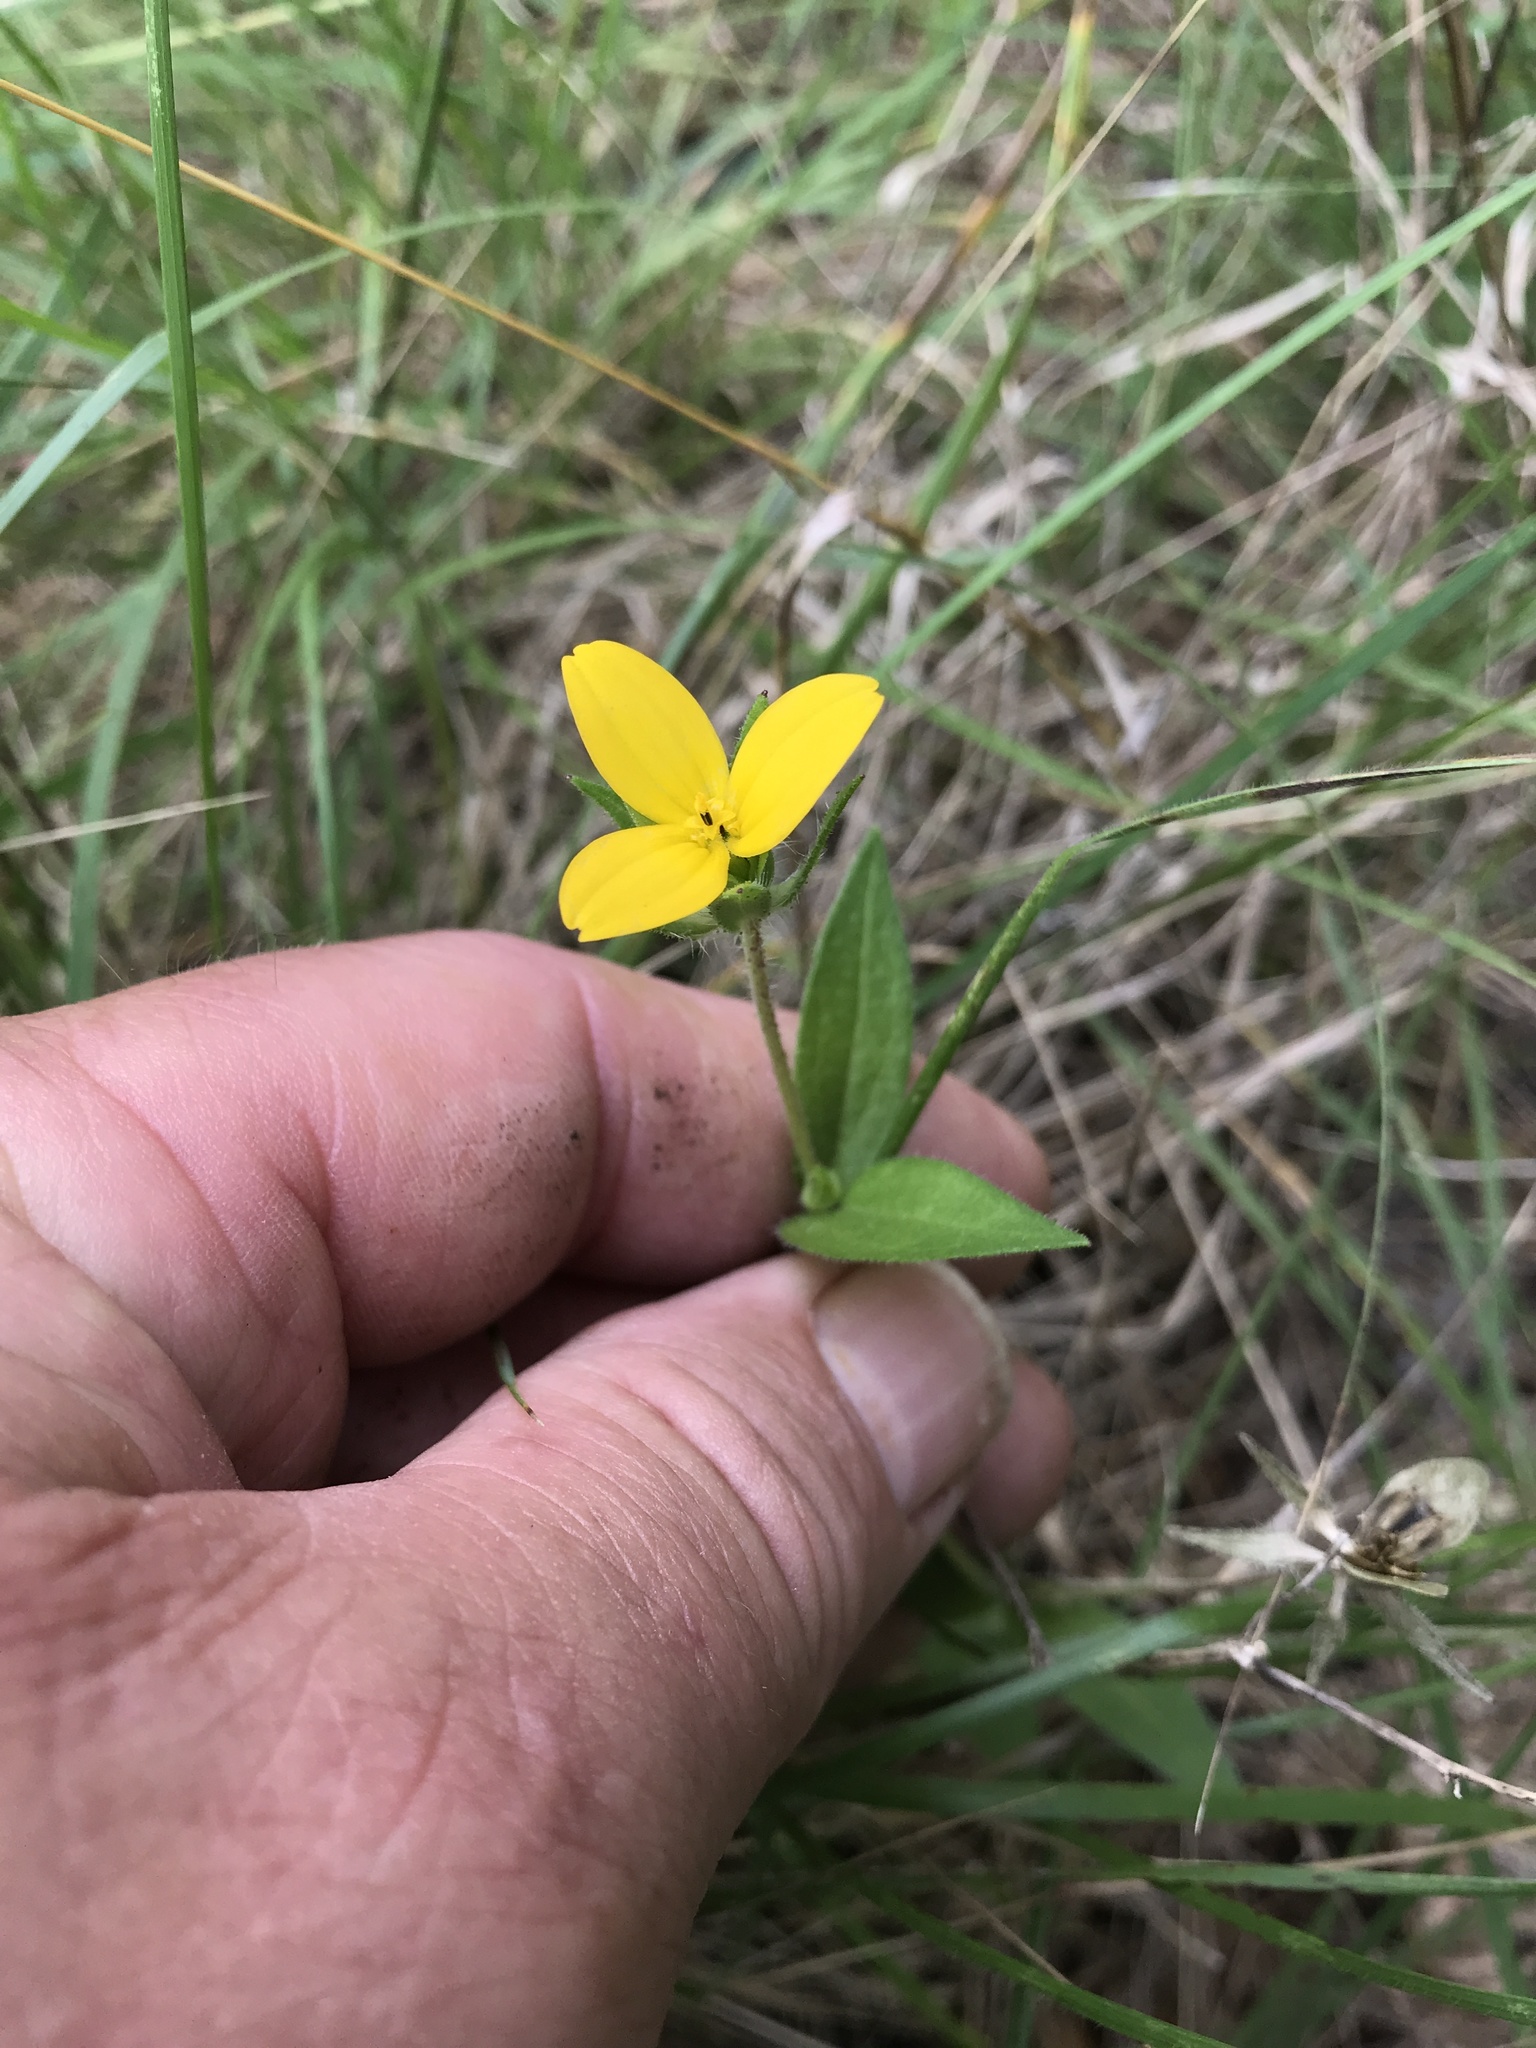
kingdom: Plantae
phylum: Tracheophyta
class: Magnoliopsida
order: Asterales
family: Asteraceae
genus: Lindheimera
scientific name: Lindheimera texana
